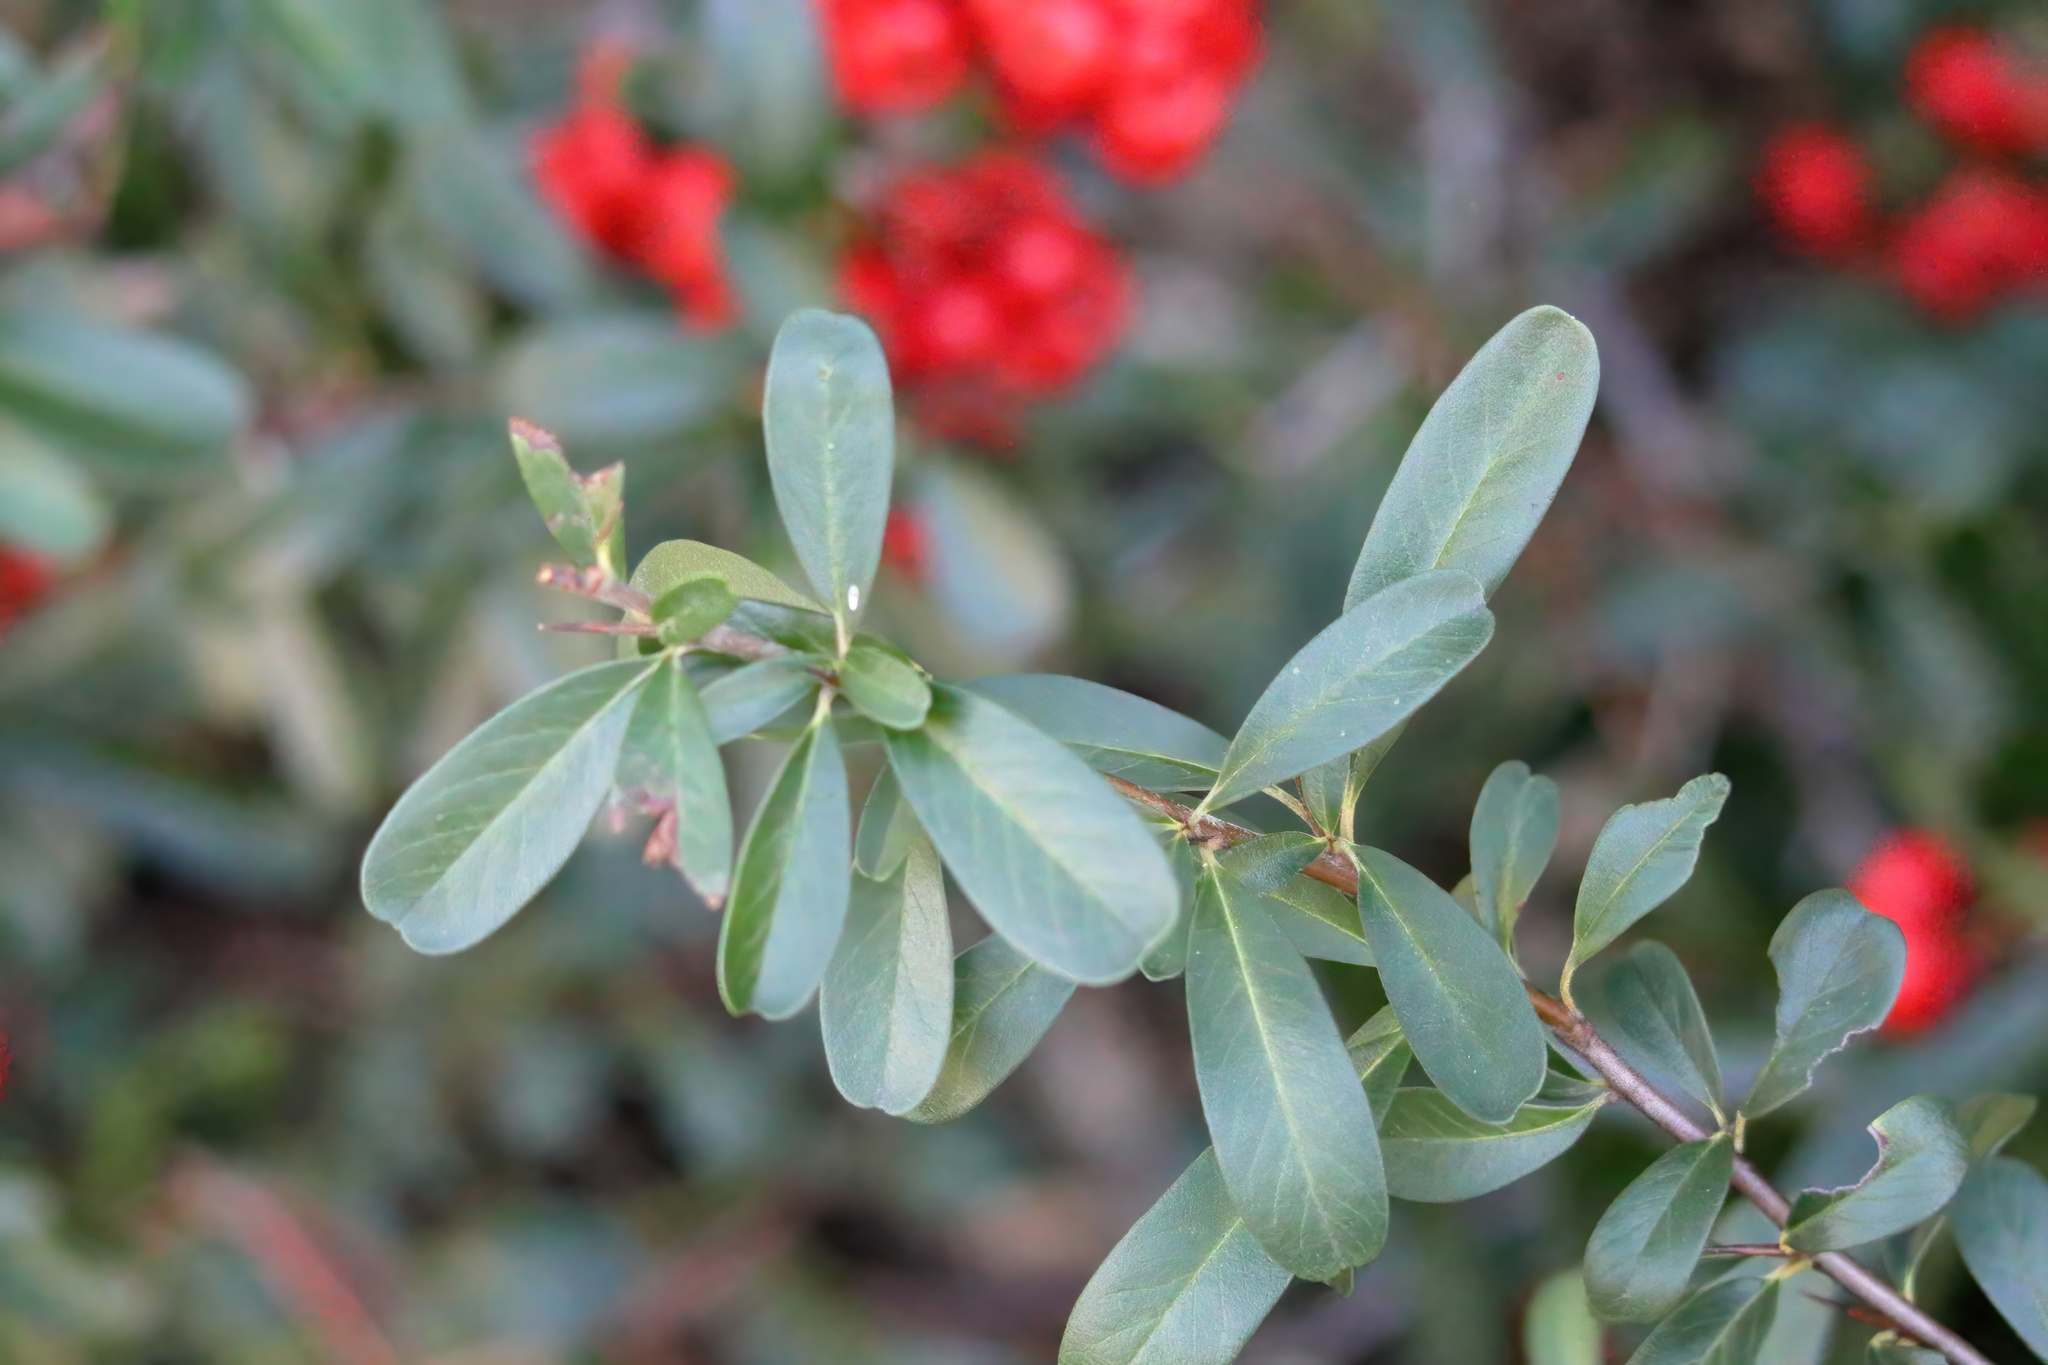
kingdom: Plantae
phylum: Tracheophyta
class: Magnoliopsida
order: Rosales
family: Rosaceae
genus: Pyracantha
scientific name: Pyracantha koidzumii
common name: Formosa firethorn
